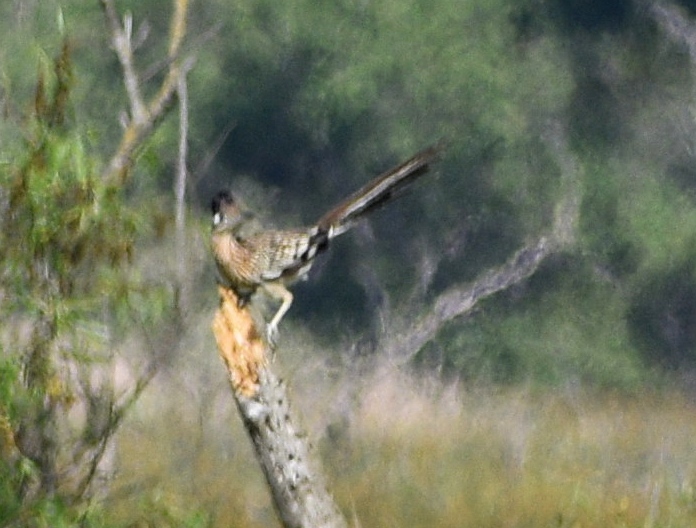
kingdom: Animalia
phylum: Chordata
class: Aves
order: Cuculiformes
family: Cuculidae
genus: Geococcyx
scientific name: Geococcyx californianus
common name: Greater roadrunner
